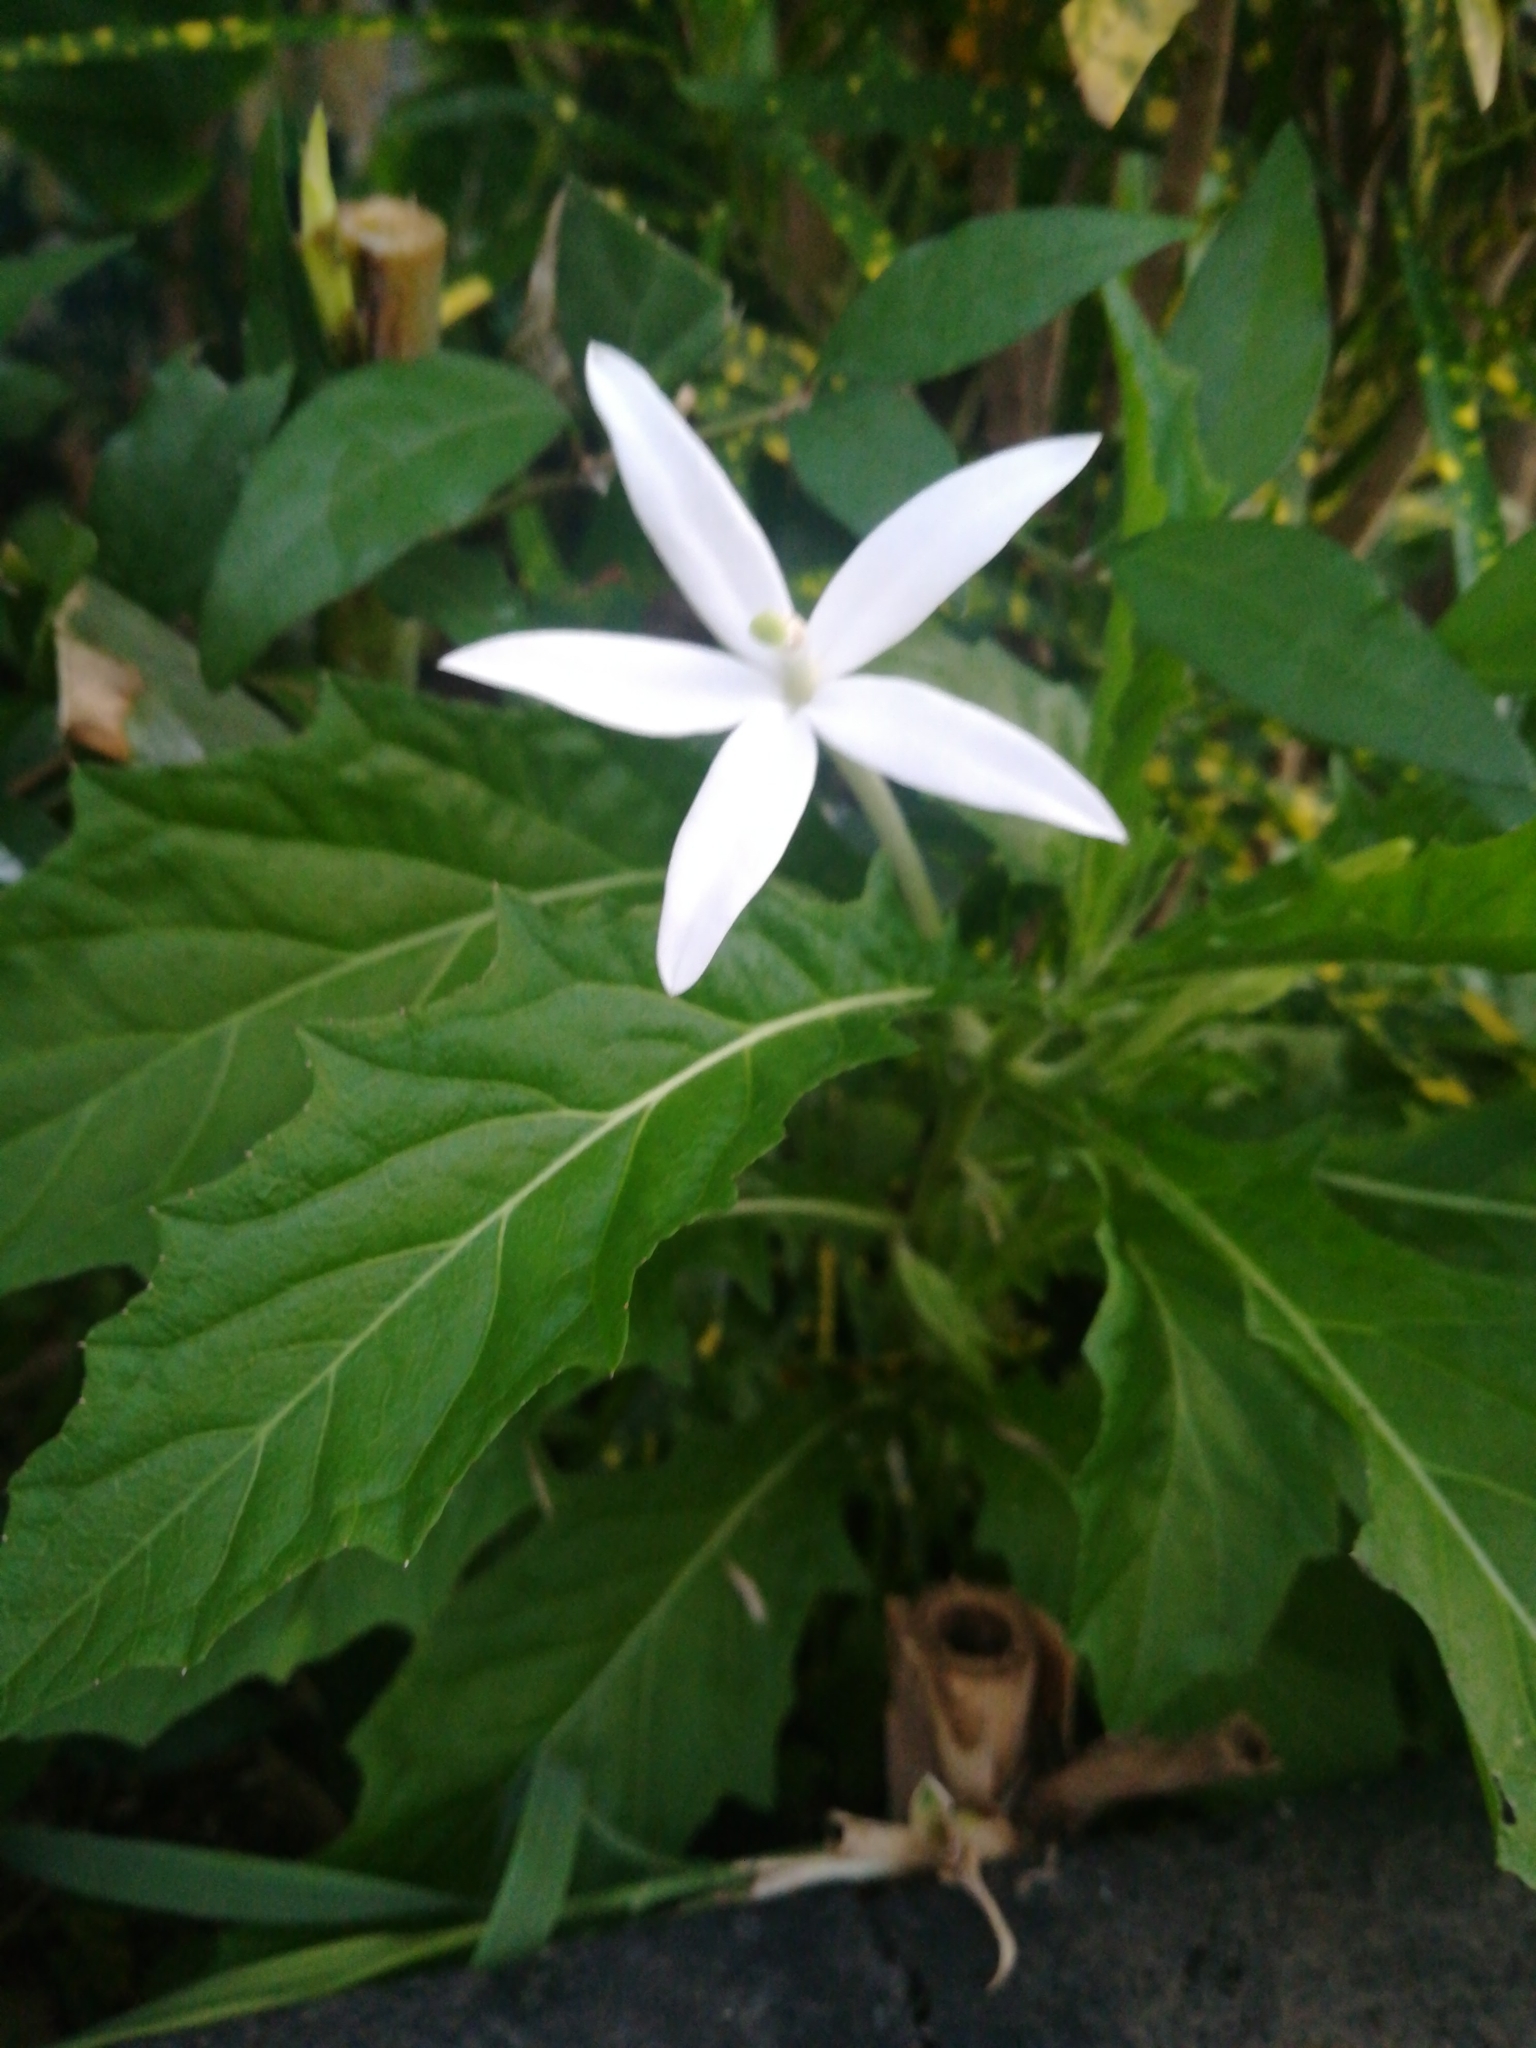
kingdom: Plantae
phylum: Tracheophyta
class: Magnoliopsida
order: Asterales
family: Campanulaceae
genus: Hippobroma
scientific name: Hippobroma longiflora
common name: Madamfate
